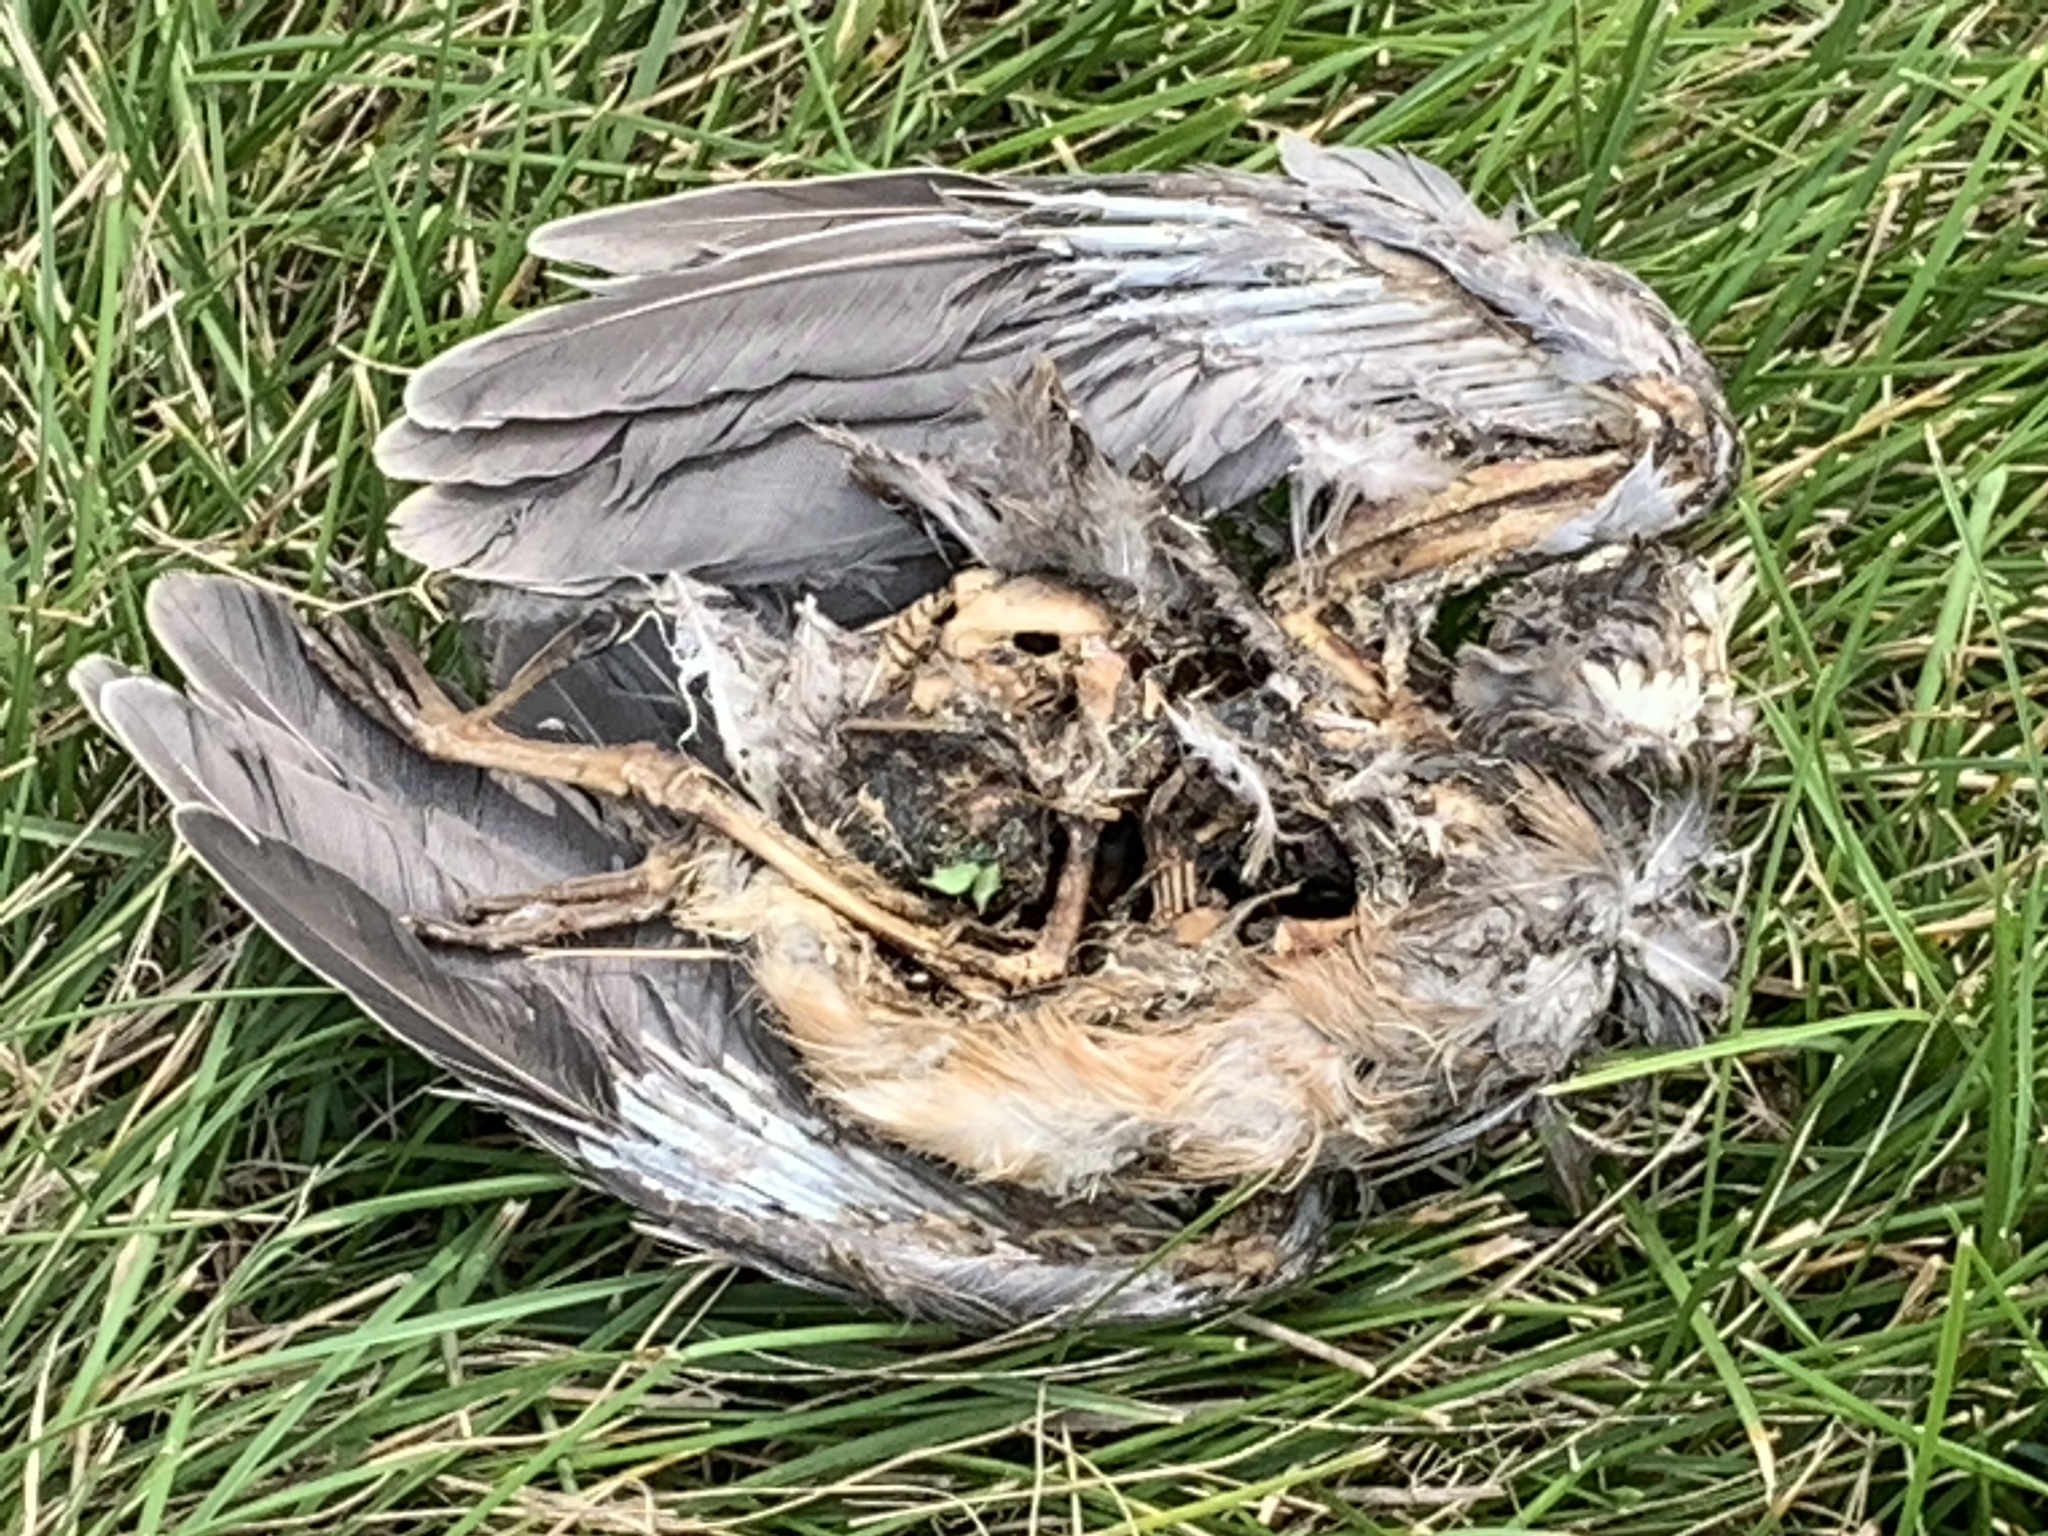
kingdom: Animalia
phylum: Chordata
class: Aves
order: Passeriformes
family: Turdidae
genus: Turdus
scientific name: Turdus migratorius
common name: American robin
